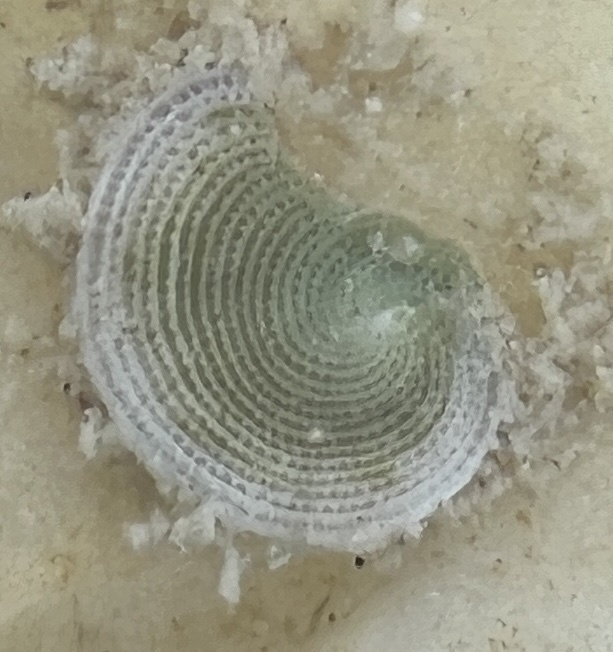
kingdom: Chromista
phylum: Foraminifera
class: Tubothalamea
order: Miliolida
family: Soritidae
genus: Archaias
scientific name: Archaias angulatus
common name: Turtle grass foram
